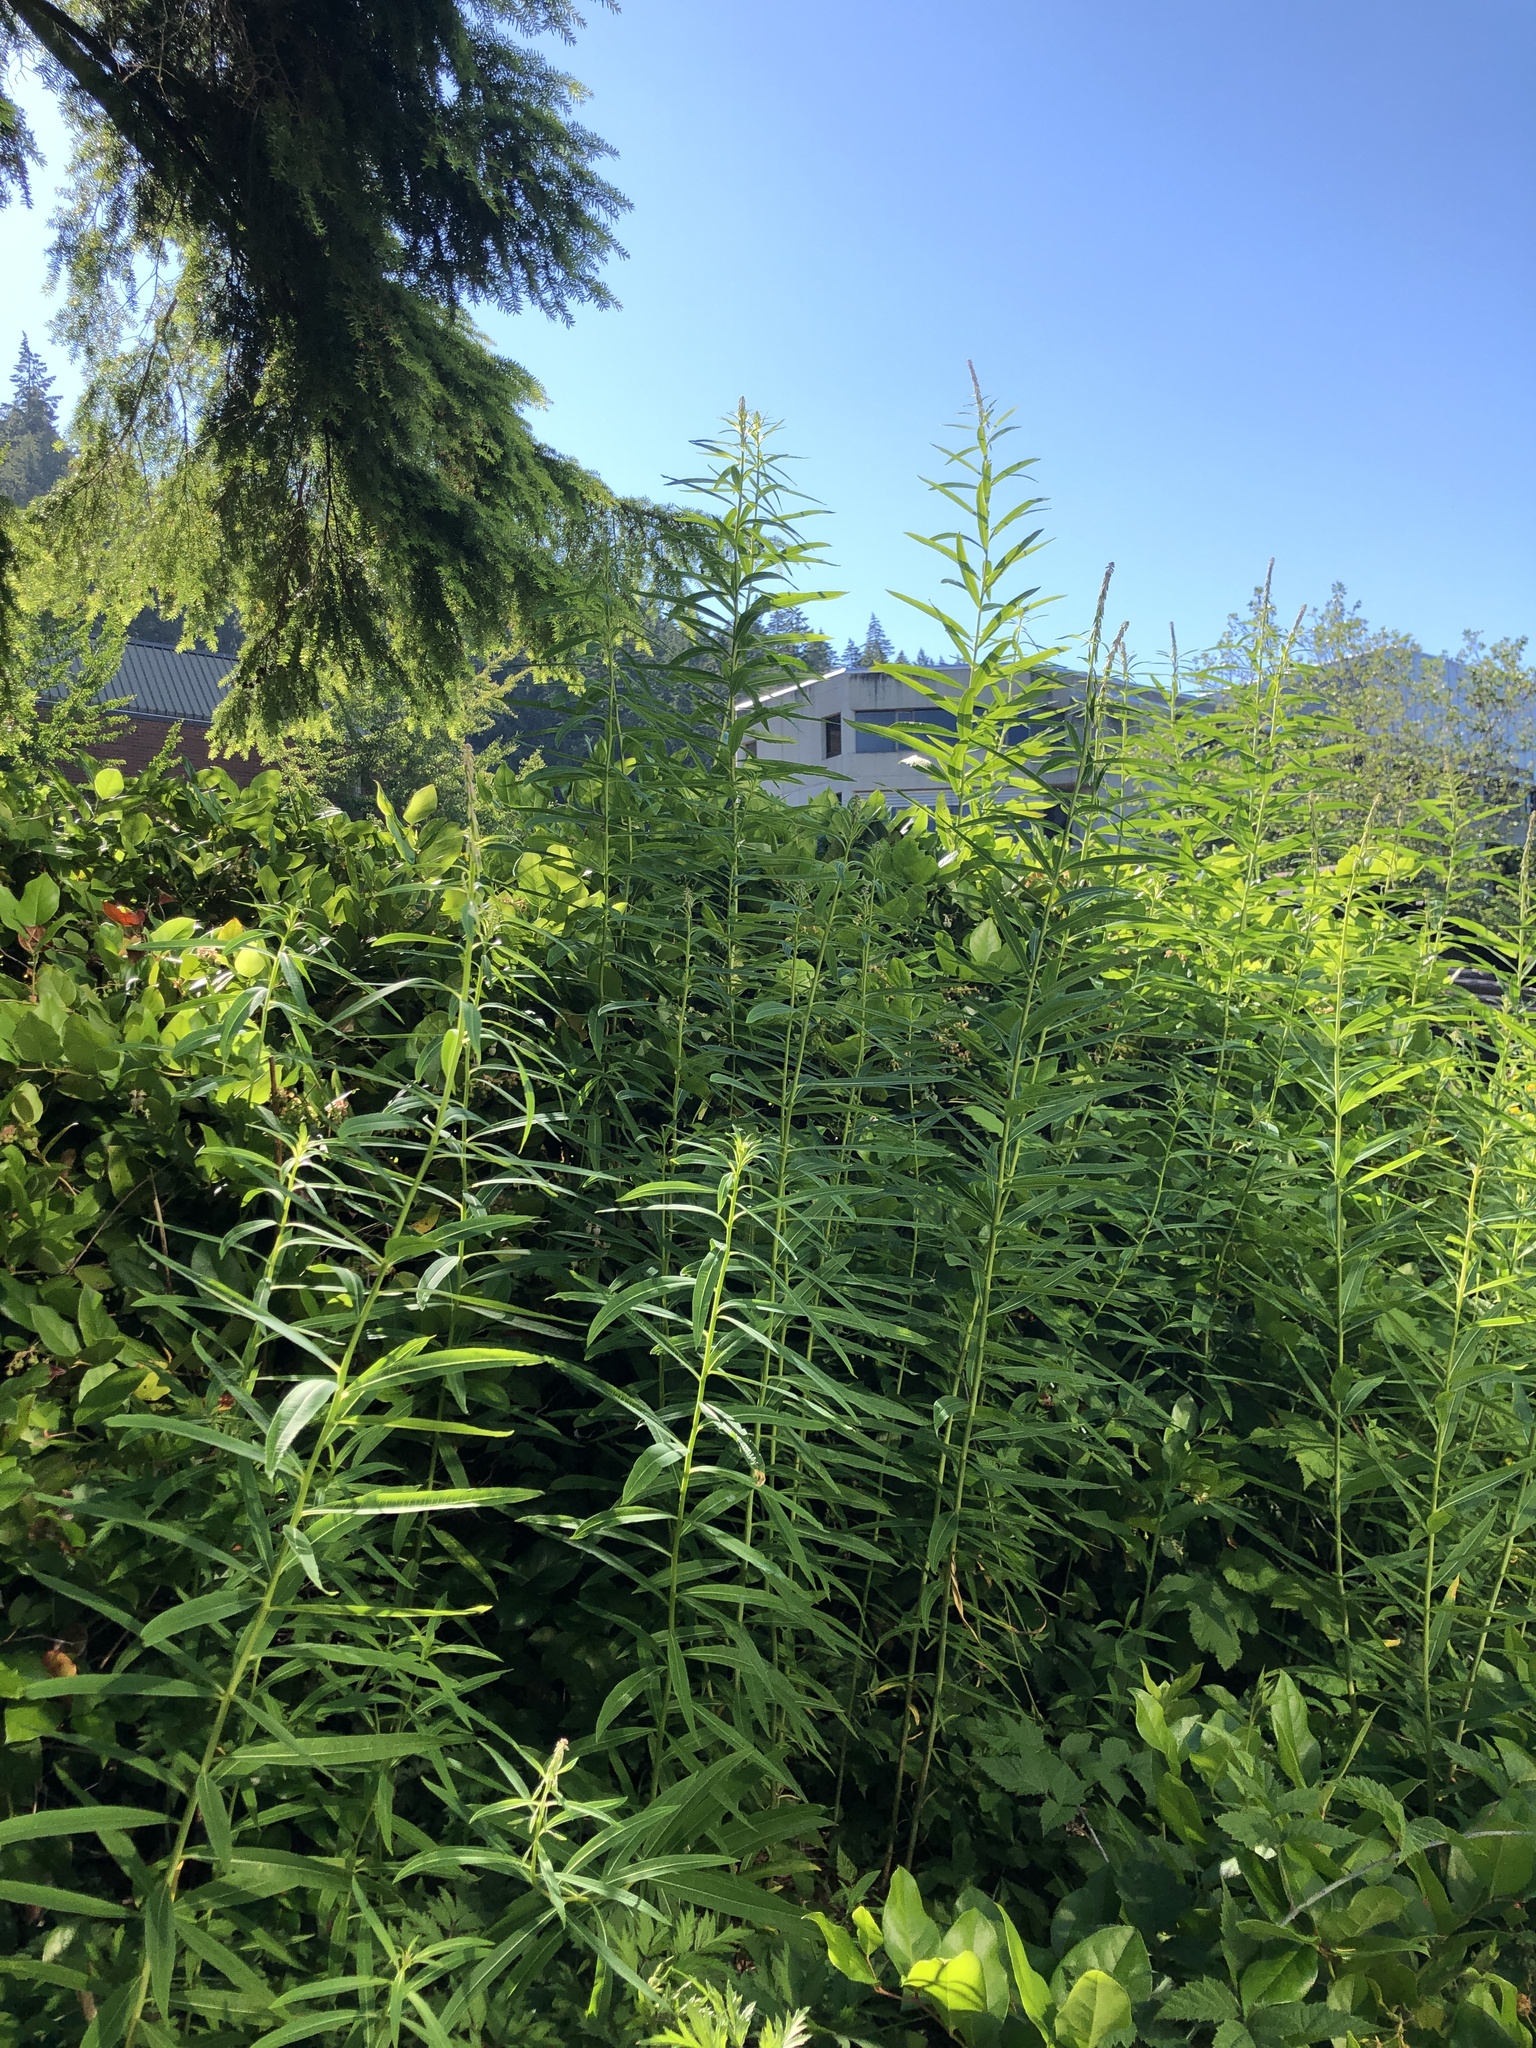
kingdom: Plantae
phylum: Tracheophyta
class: Magnoliopsida
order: Myrtales
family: Onagraceae
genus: Chamaenerion
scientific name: Chamaenerion angustifolium
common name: Fireweed
